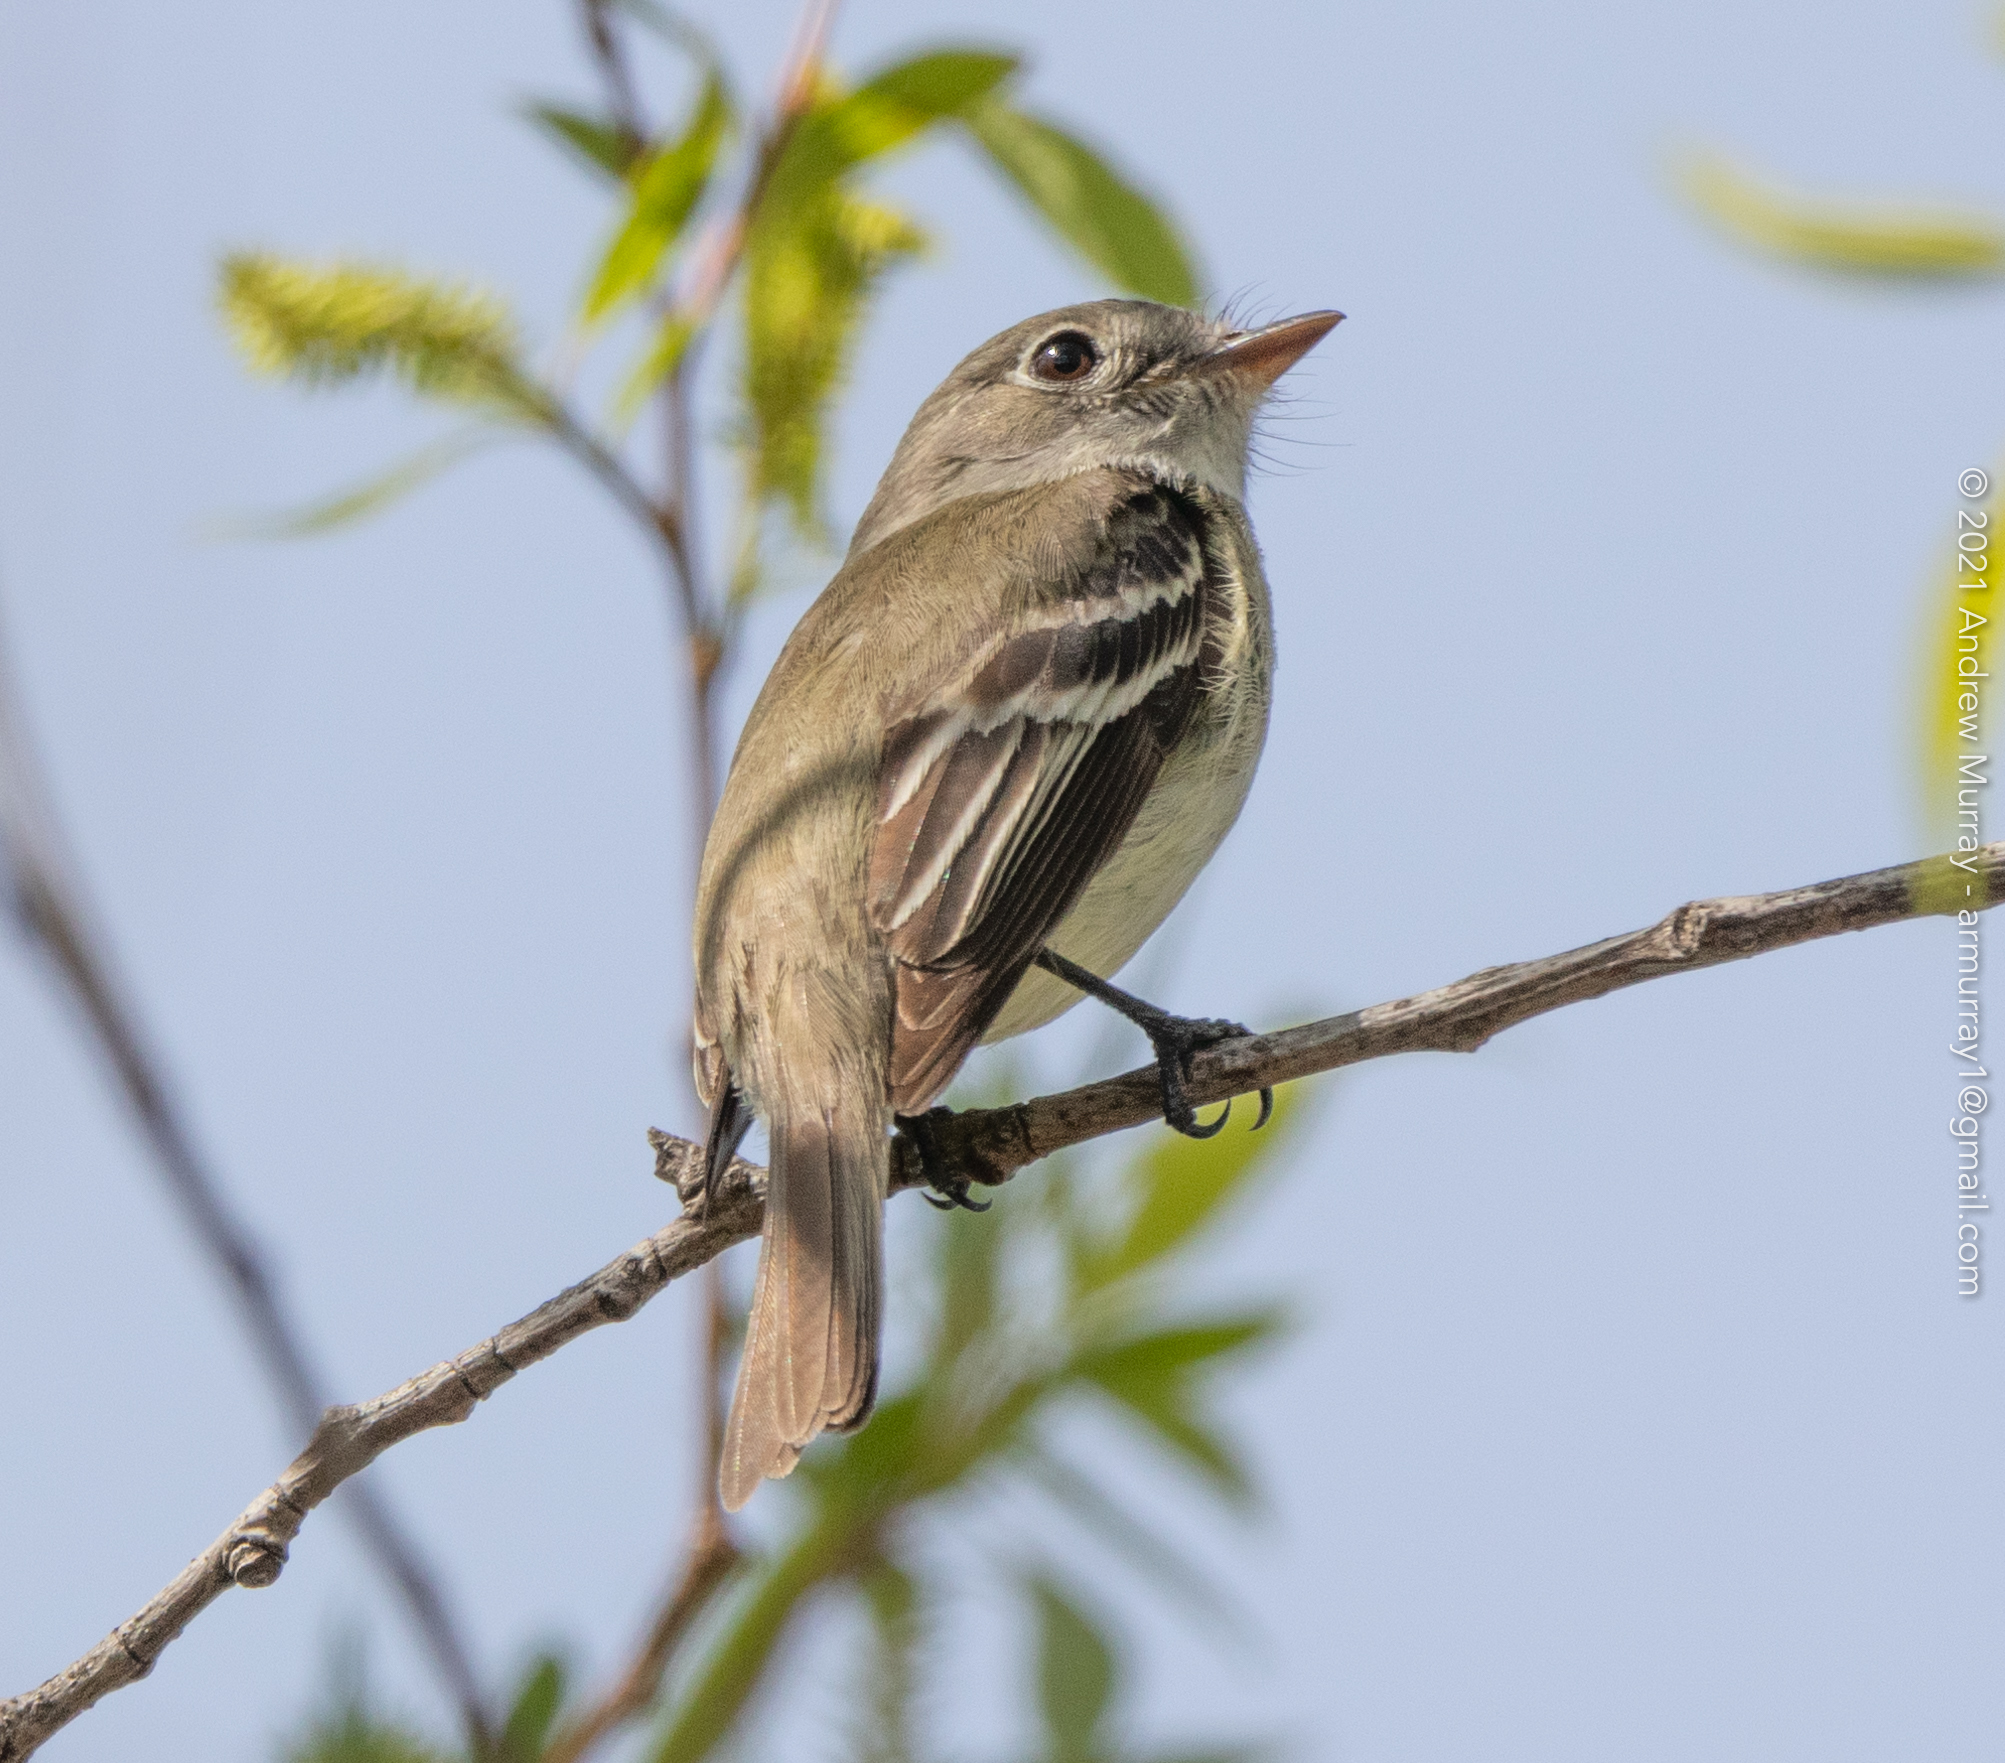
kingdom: Animalia
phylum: Chordata
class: Aves
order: Passeriformes
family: Tyrannidae
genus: Empidonax
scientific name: Empidonax minimus
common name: Least flycatcher
